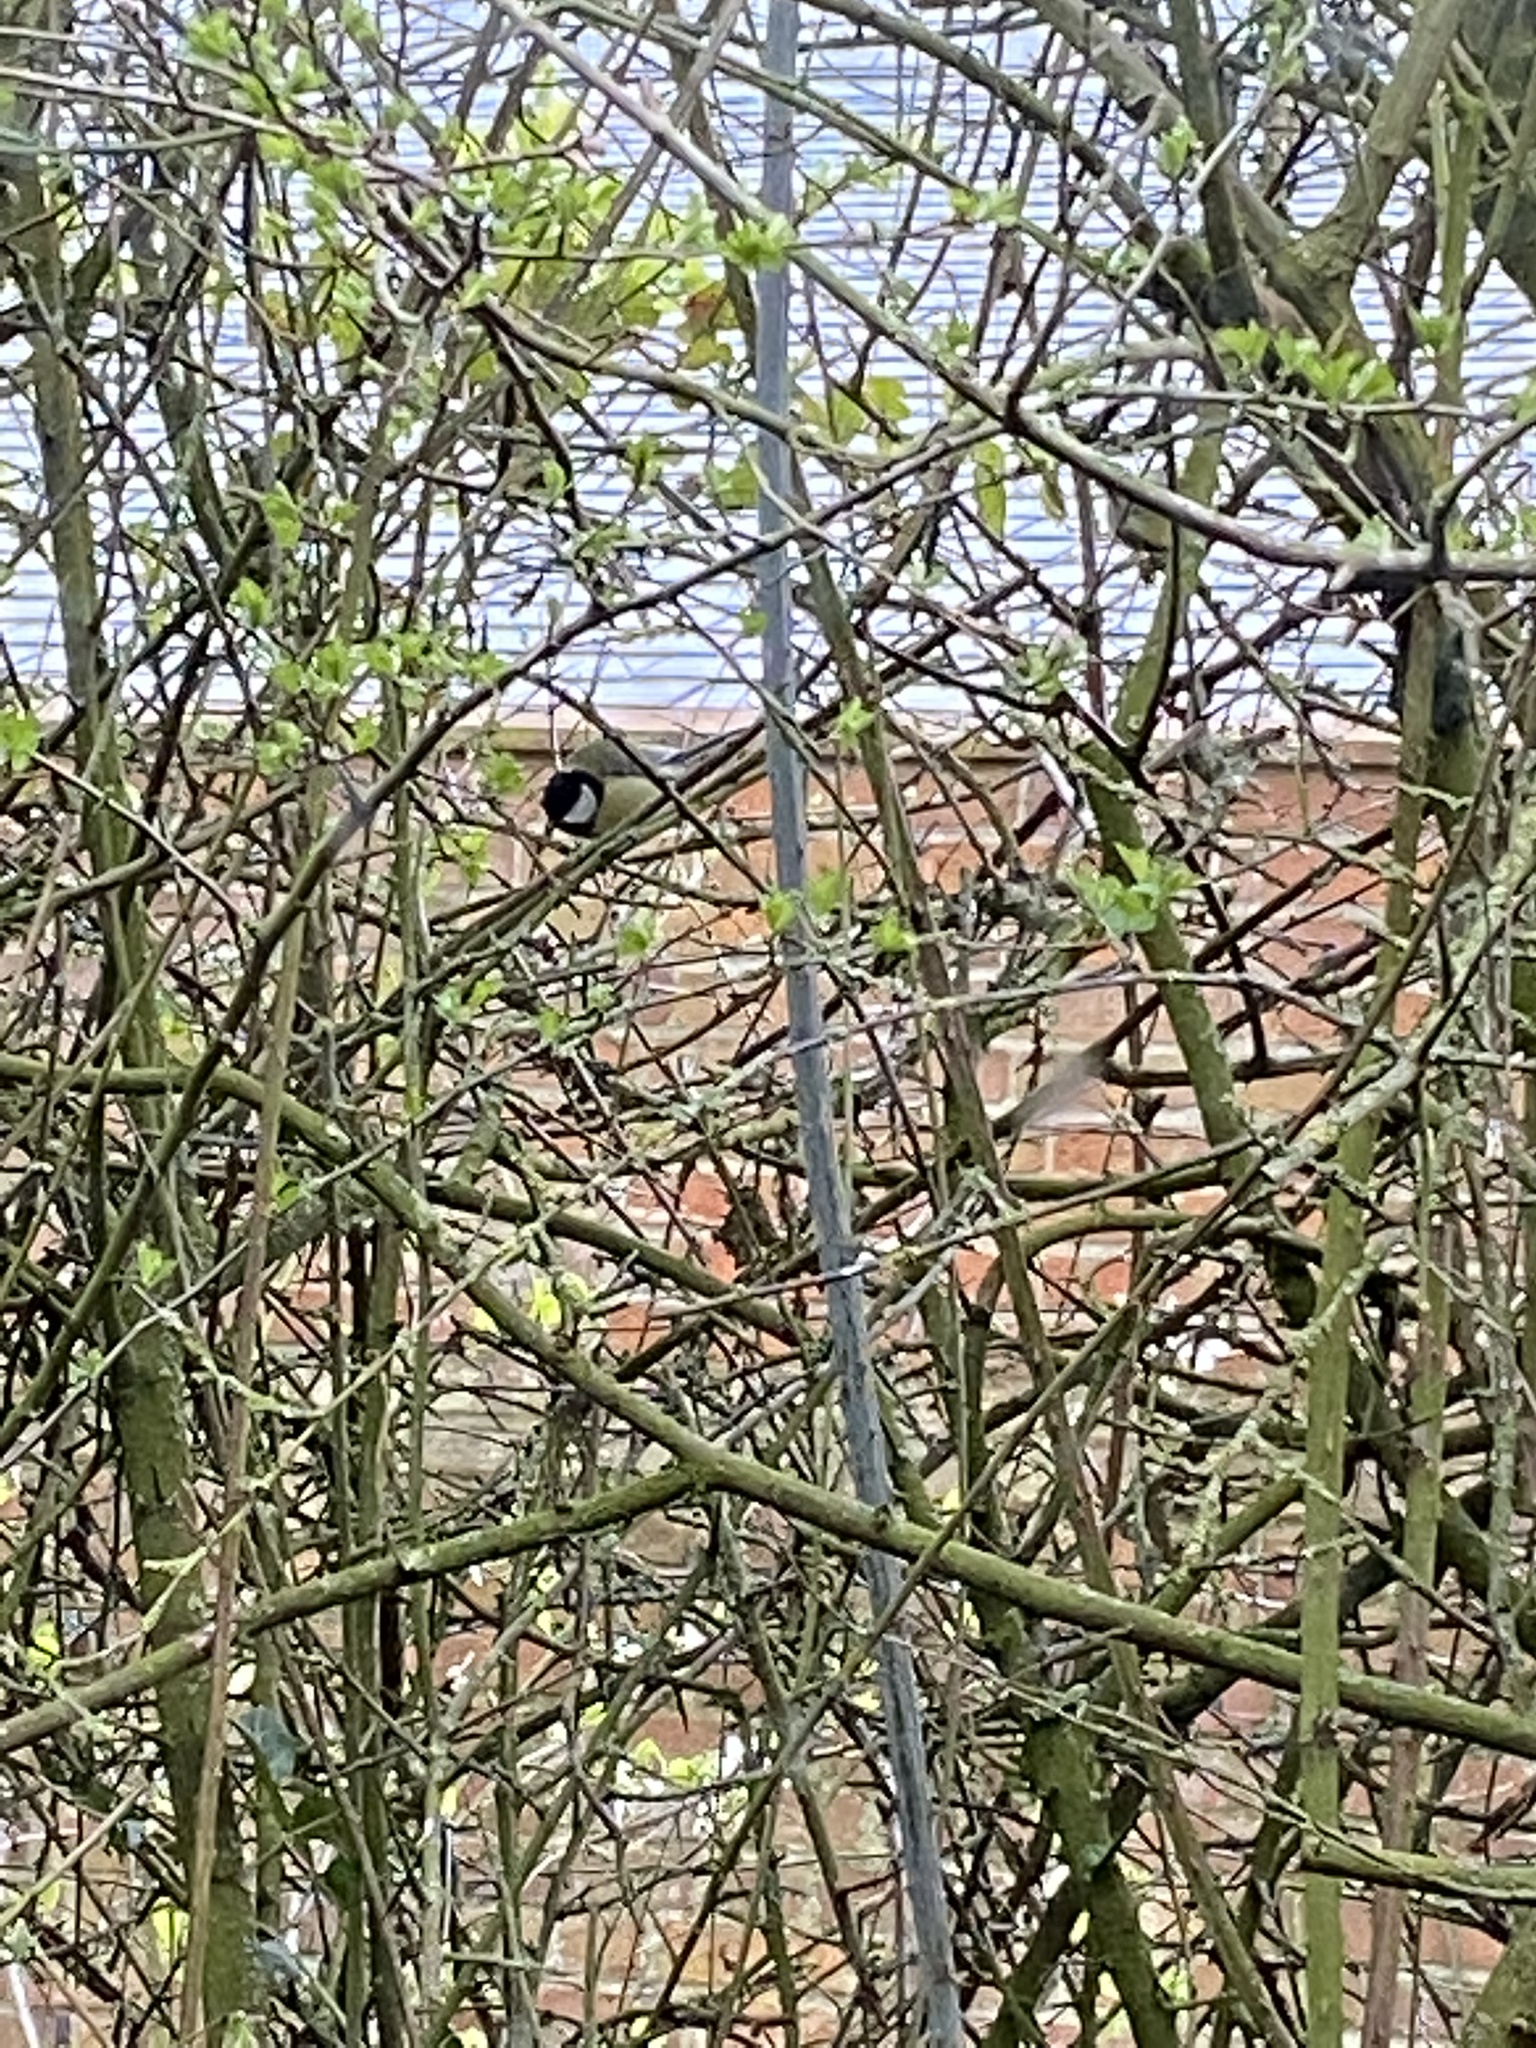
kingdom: Animalia
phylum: Chordata
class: Aves
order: Passeriformes
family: Paridae
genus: Parus
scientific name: Parus major
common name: Great tit
